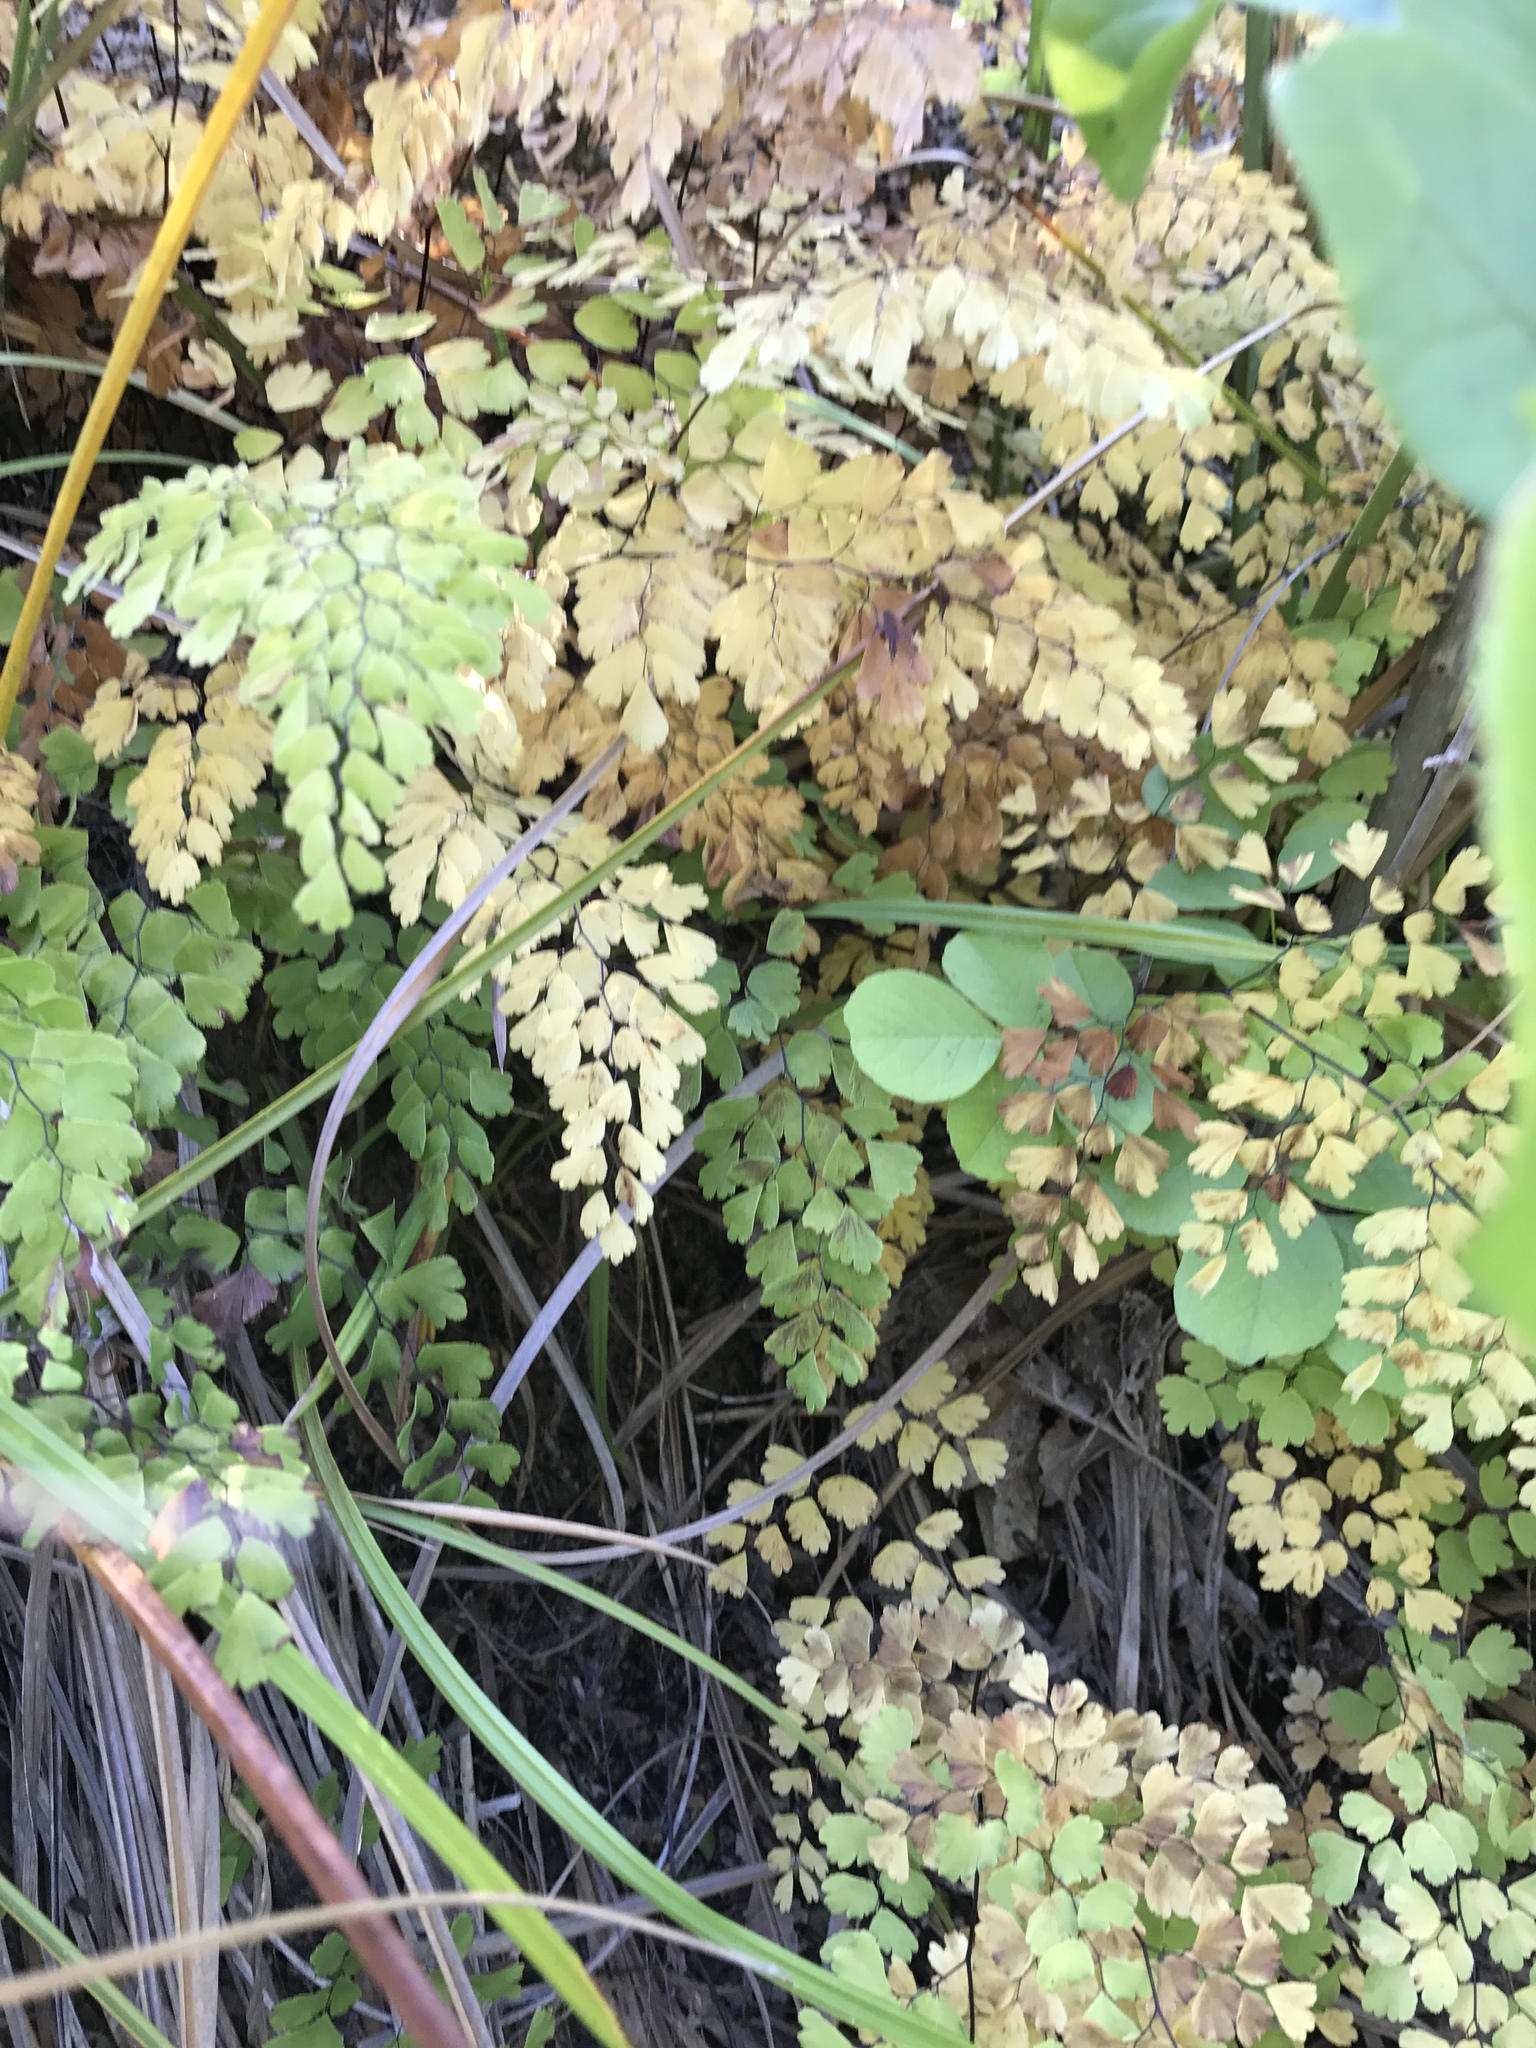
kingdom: Plantae
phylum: Tracheophyta
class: Polypodiopsida
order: Polypodiales
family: Pteridaceae
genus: Adiantum
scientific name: Adiantum capillus-veneris
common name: Maidenhair fern
